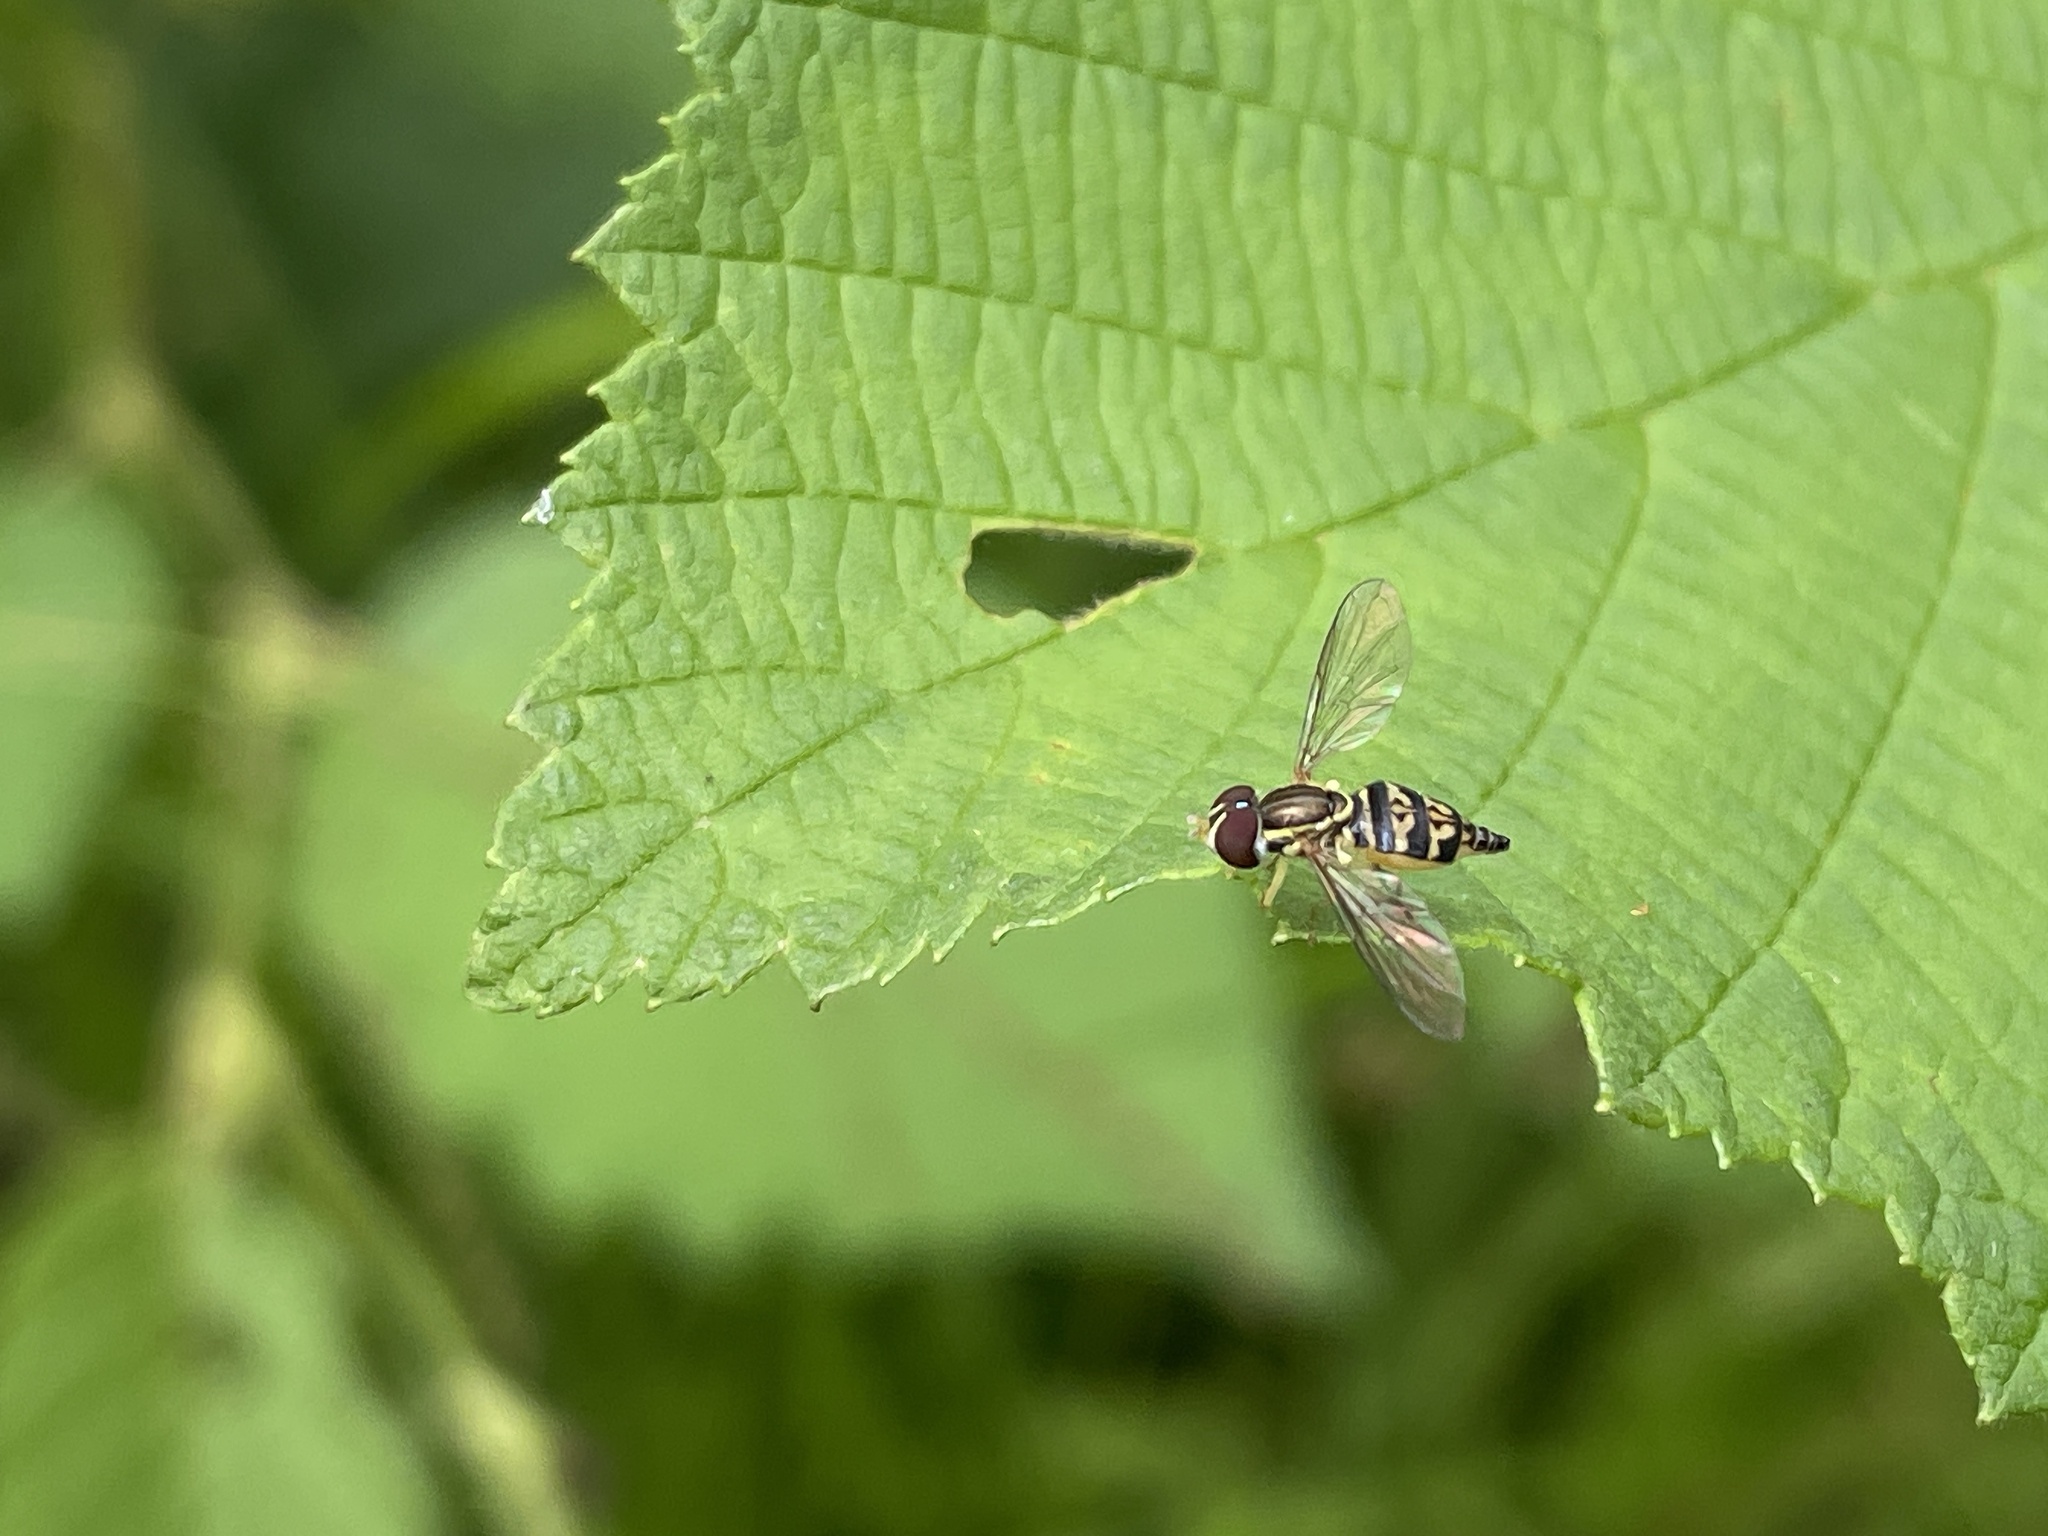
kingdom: Animalia
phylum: Arthropoda
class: Insecta
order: Diptera
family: Syrphidae
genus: Toxomerus
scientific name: Toxomerus geminatus
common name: Eastern calligrapher
